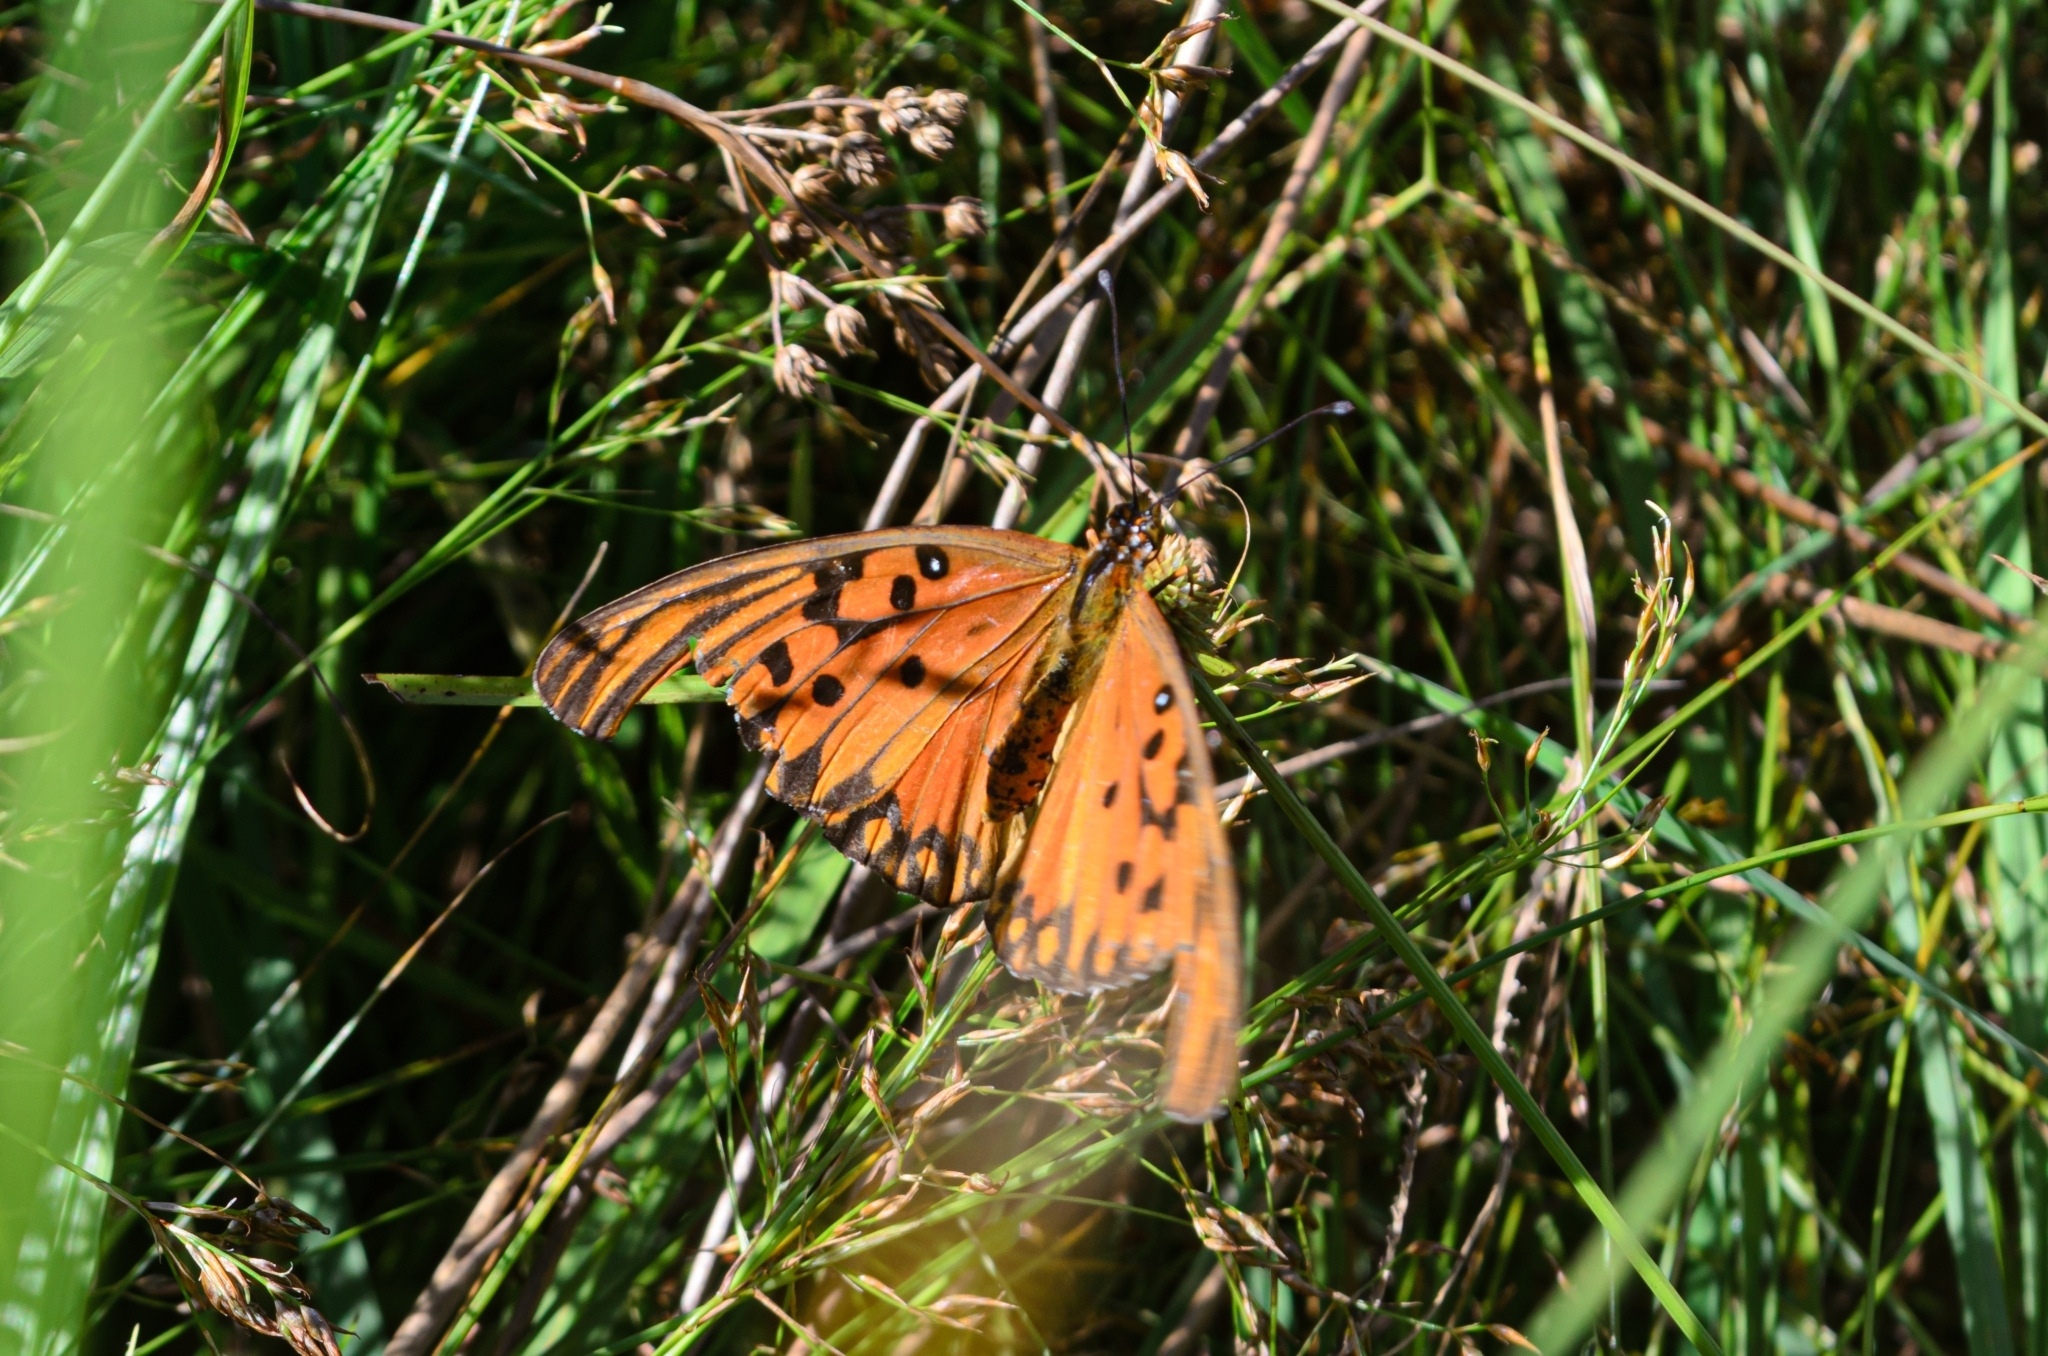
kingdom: Animalia
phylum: Arthropoda
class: Insecta
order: Lepidoptera
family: Nymphalidae
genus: Dione
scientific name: Dione vanillae
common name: Gulf fritillary
